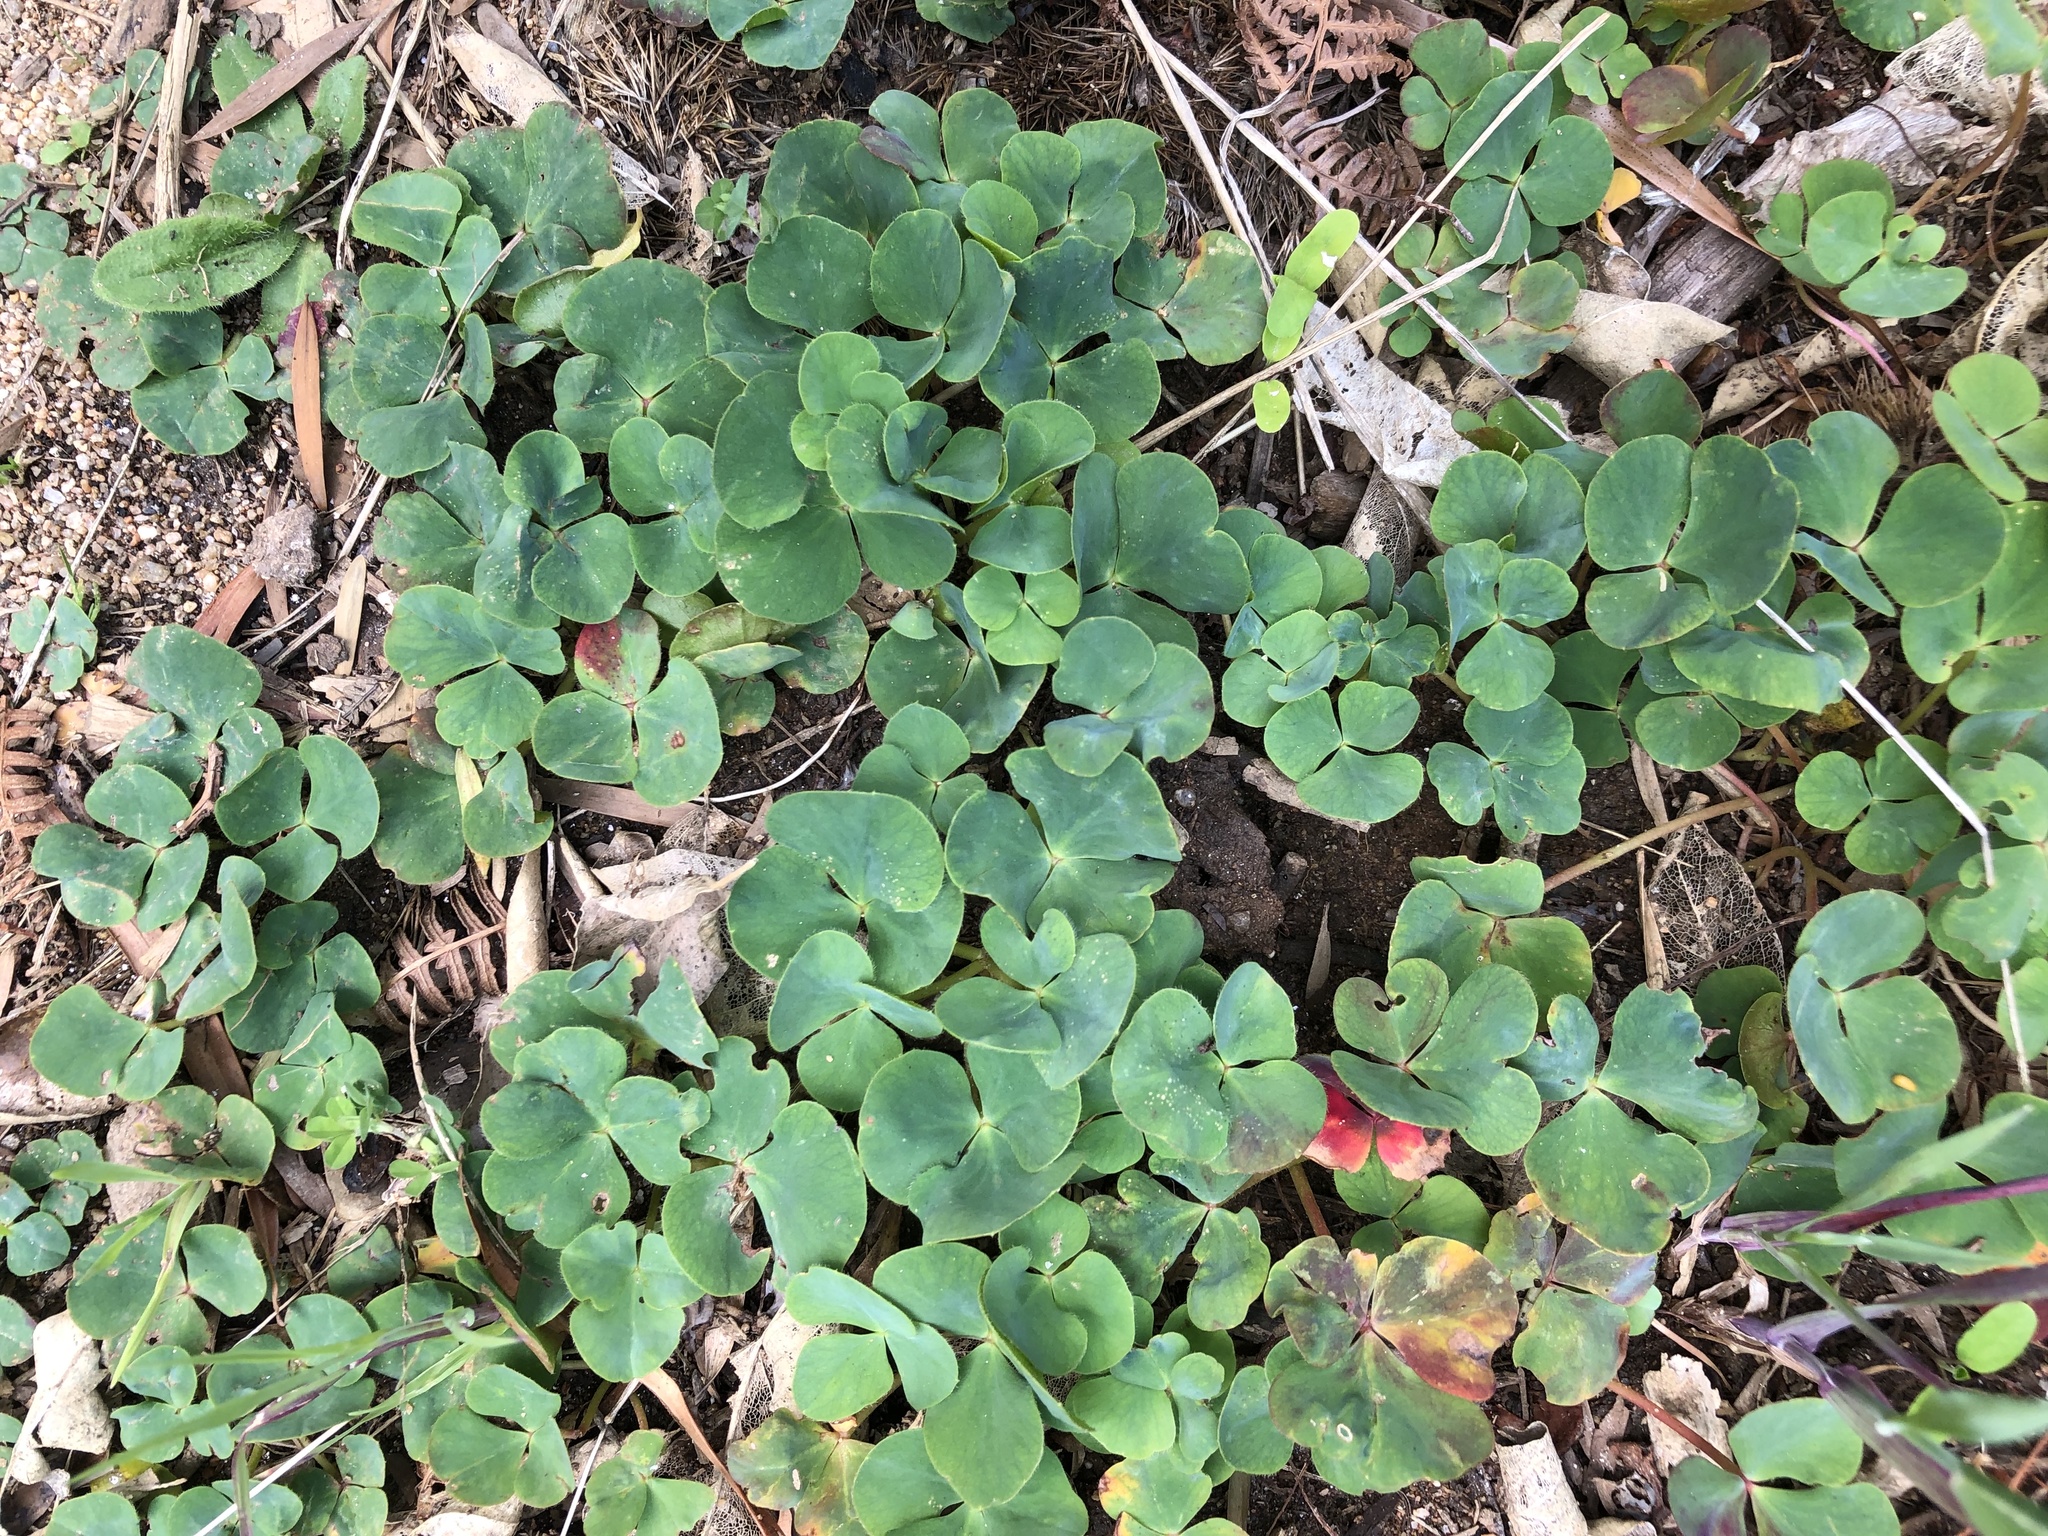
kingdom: Plantae
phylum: Tracheophyta
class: Magnoliopsida
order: Oxalidales
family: Oxalidaceae
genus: Oxalis
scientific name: Oxalis purpurea
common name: Purple woodsorrel
